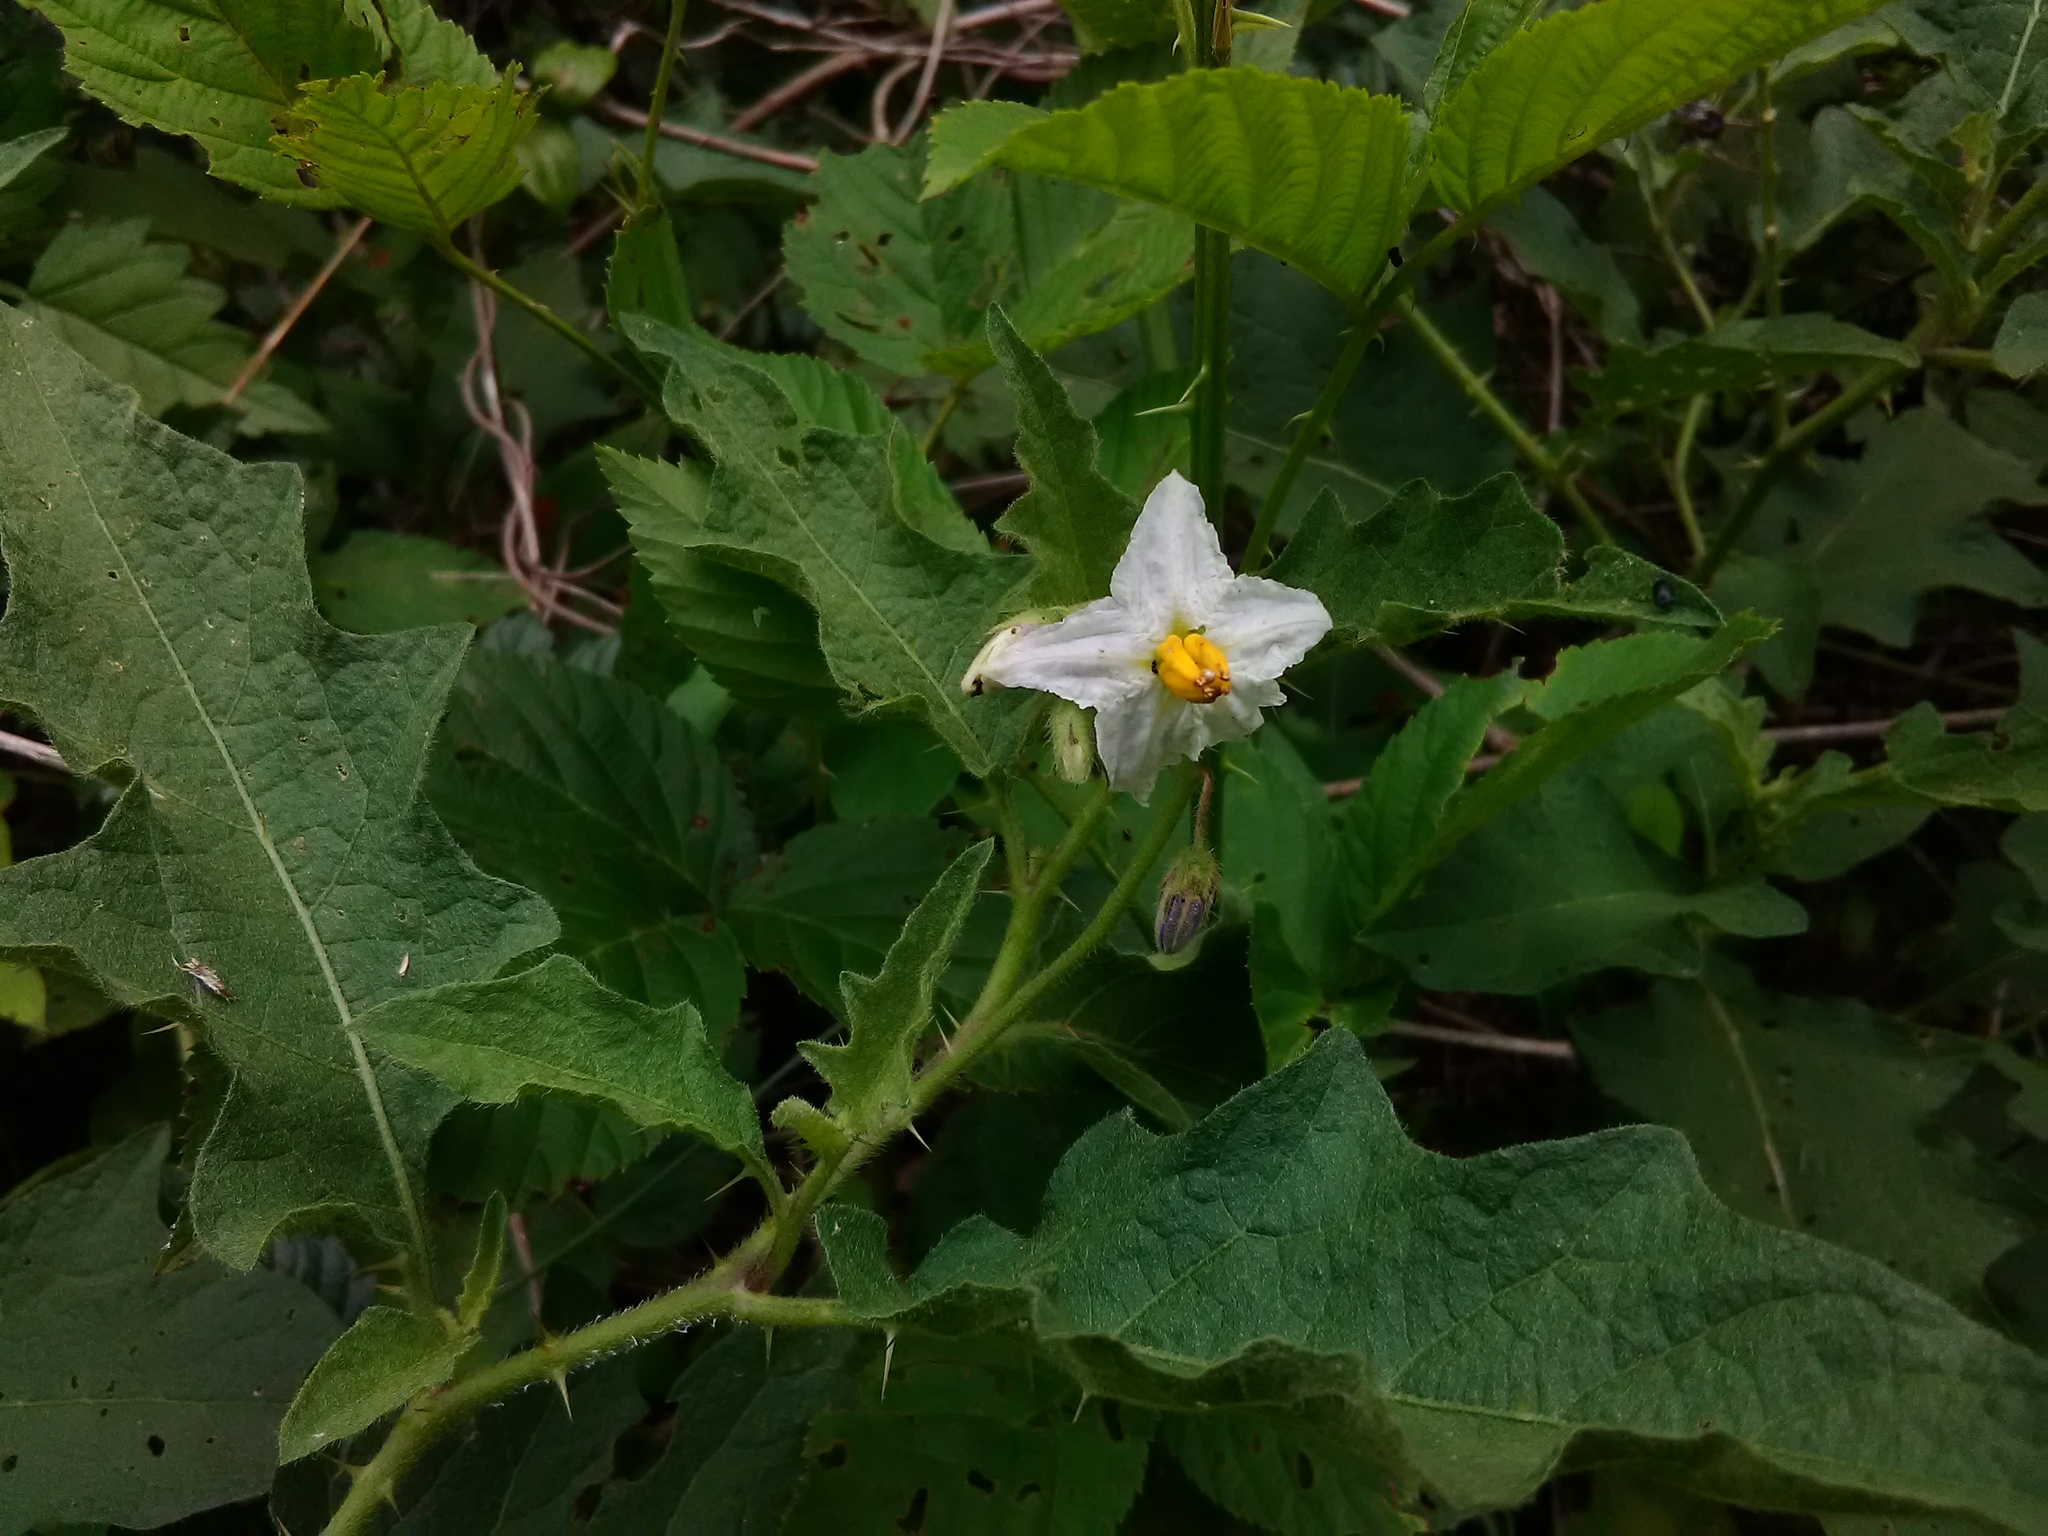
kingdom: Plantae
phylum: Tracheophyta
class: Magnoliopsida
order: Solanales
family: Solanaceae
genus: Solanum
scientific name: Solanum carolinense
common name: Horse-nettle
